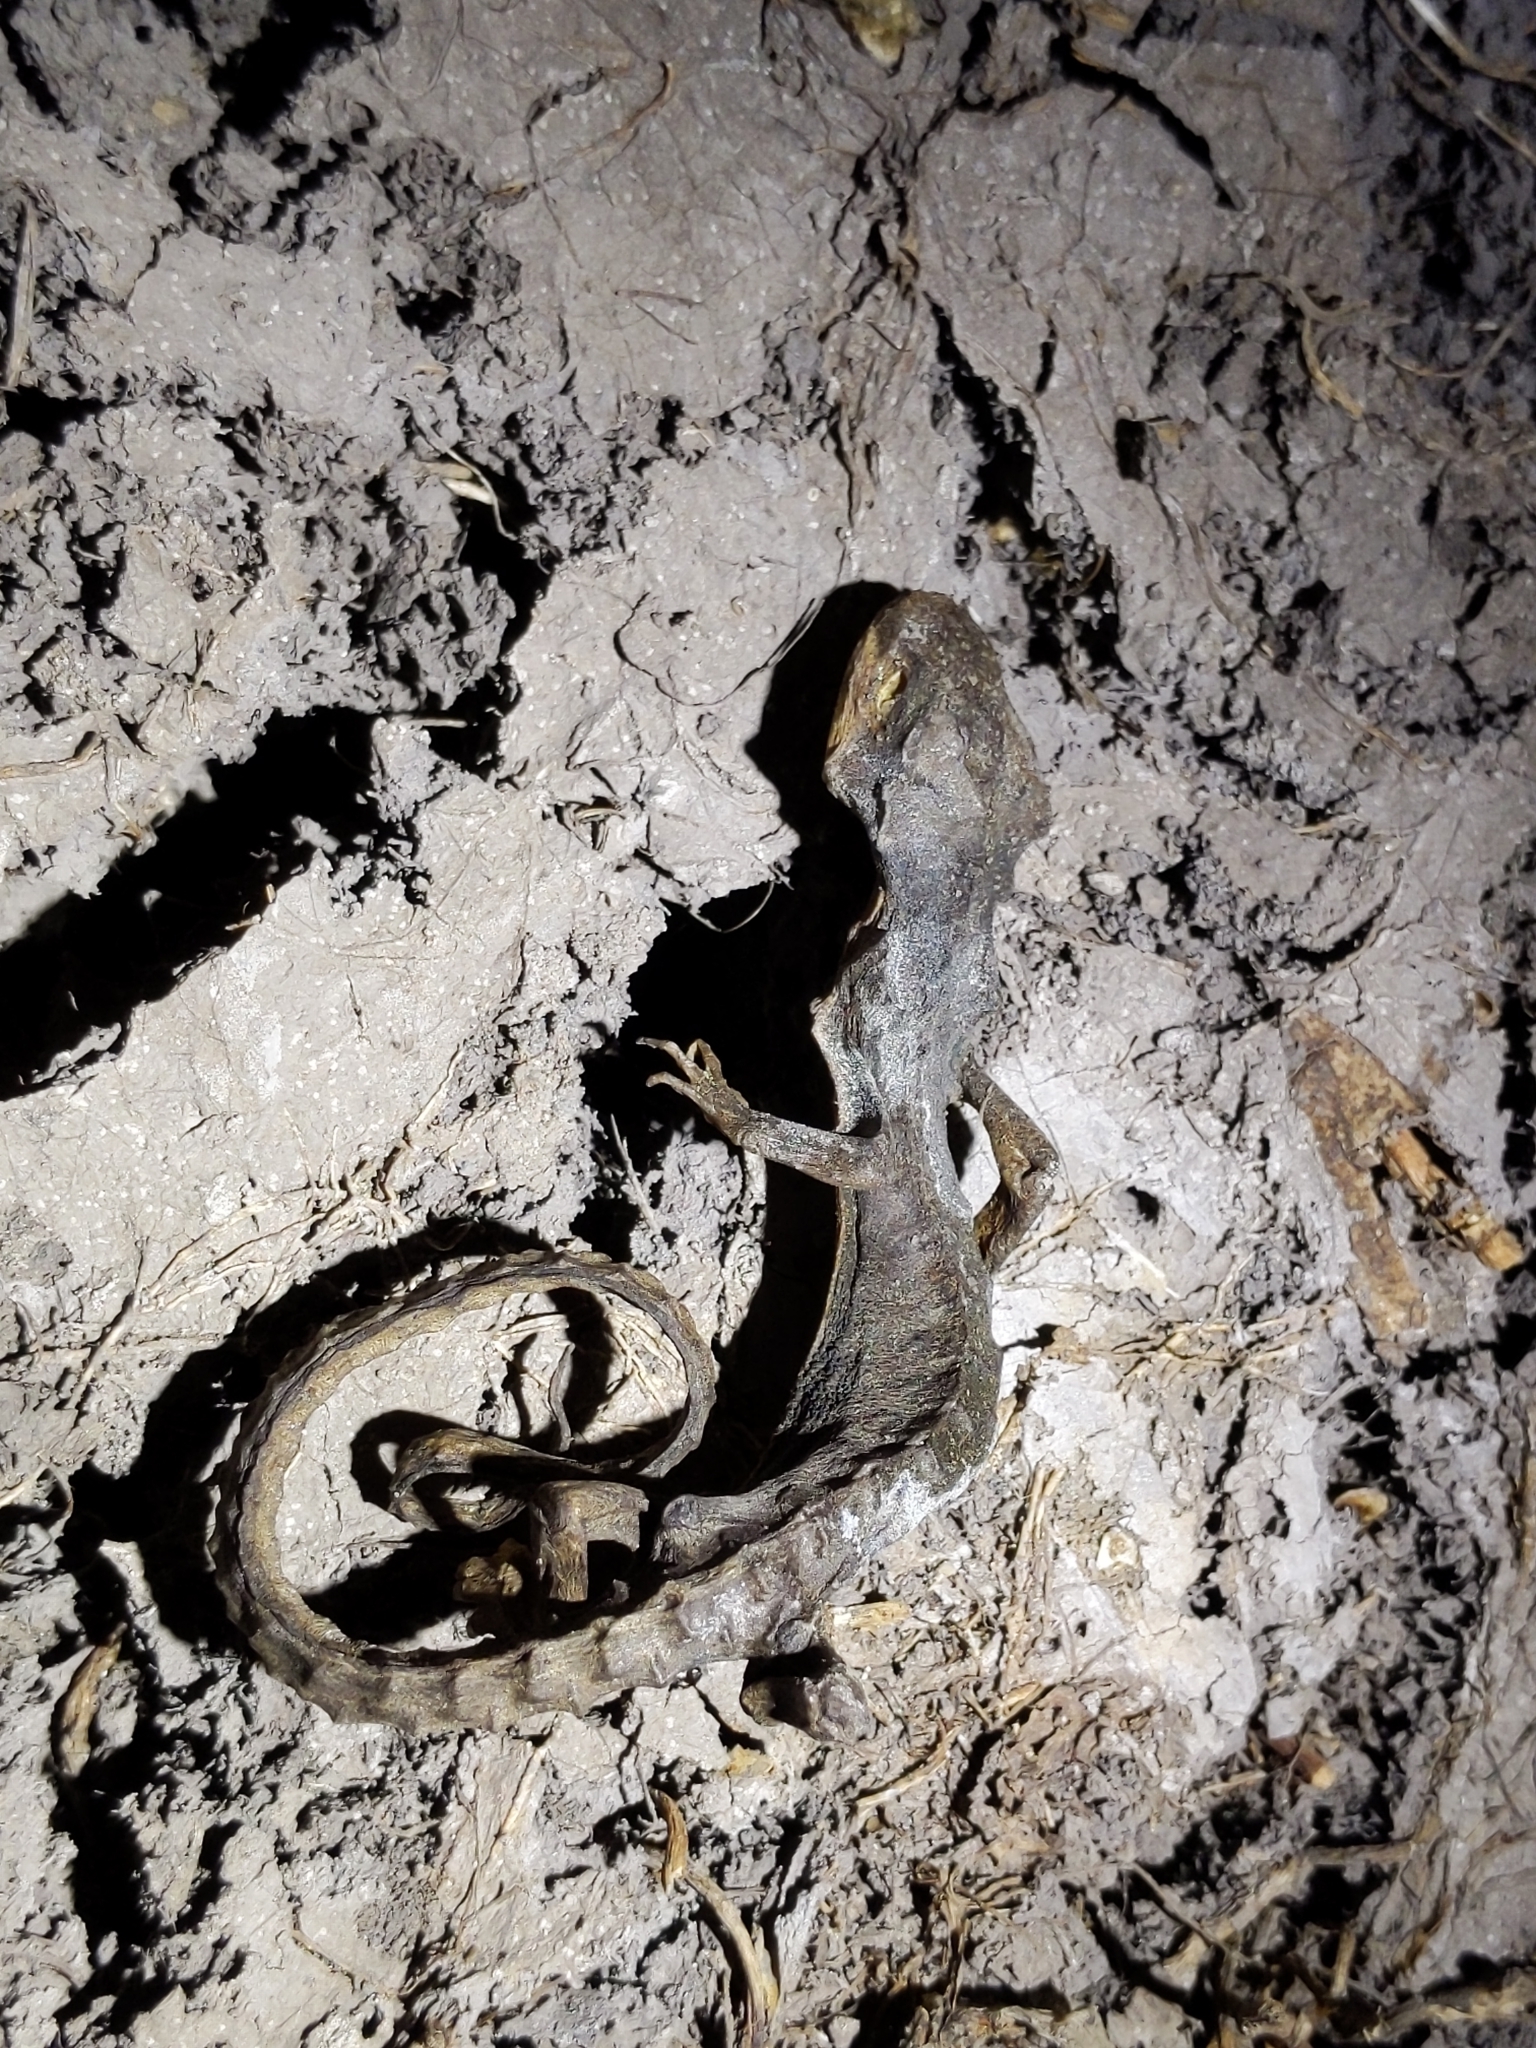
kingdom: Animalia
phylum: Chordata
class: Amphibia
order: Caudata
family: Salamandridae
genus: Taricha
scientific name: Taricha
